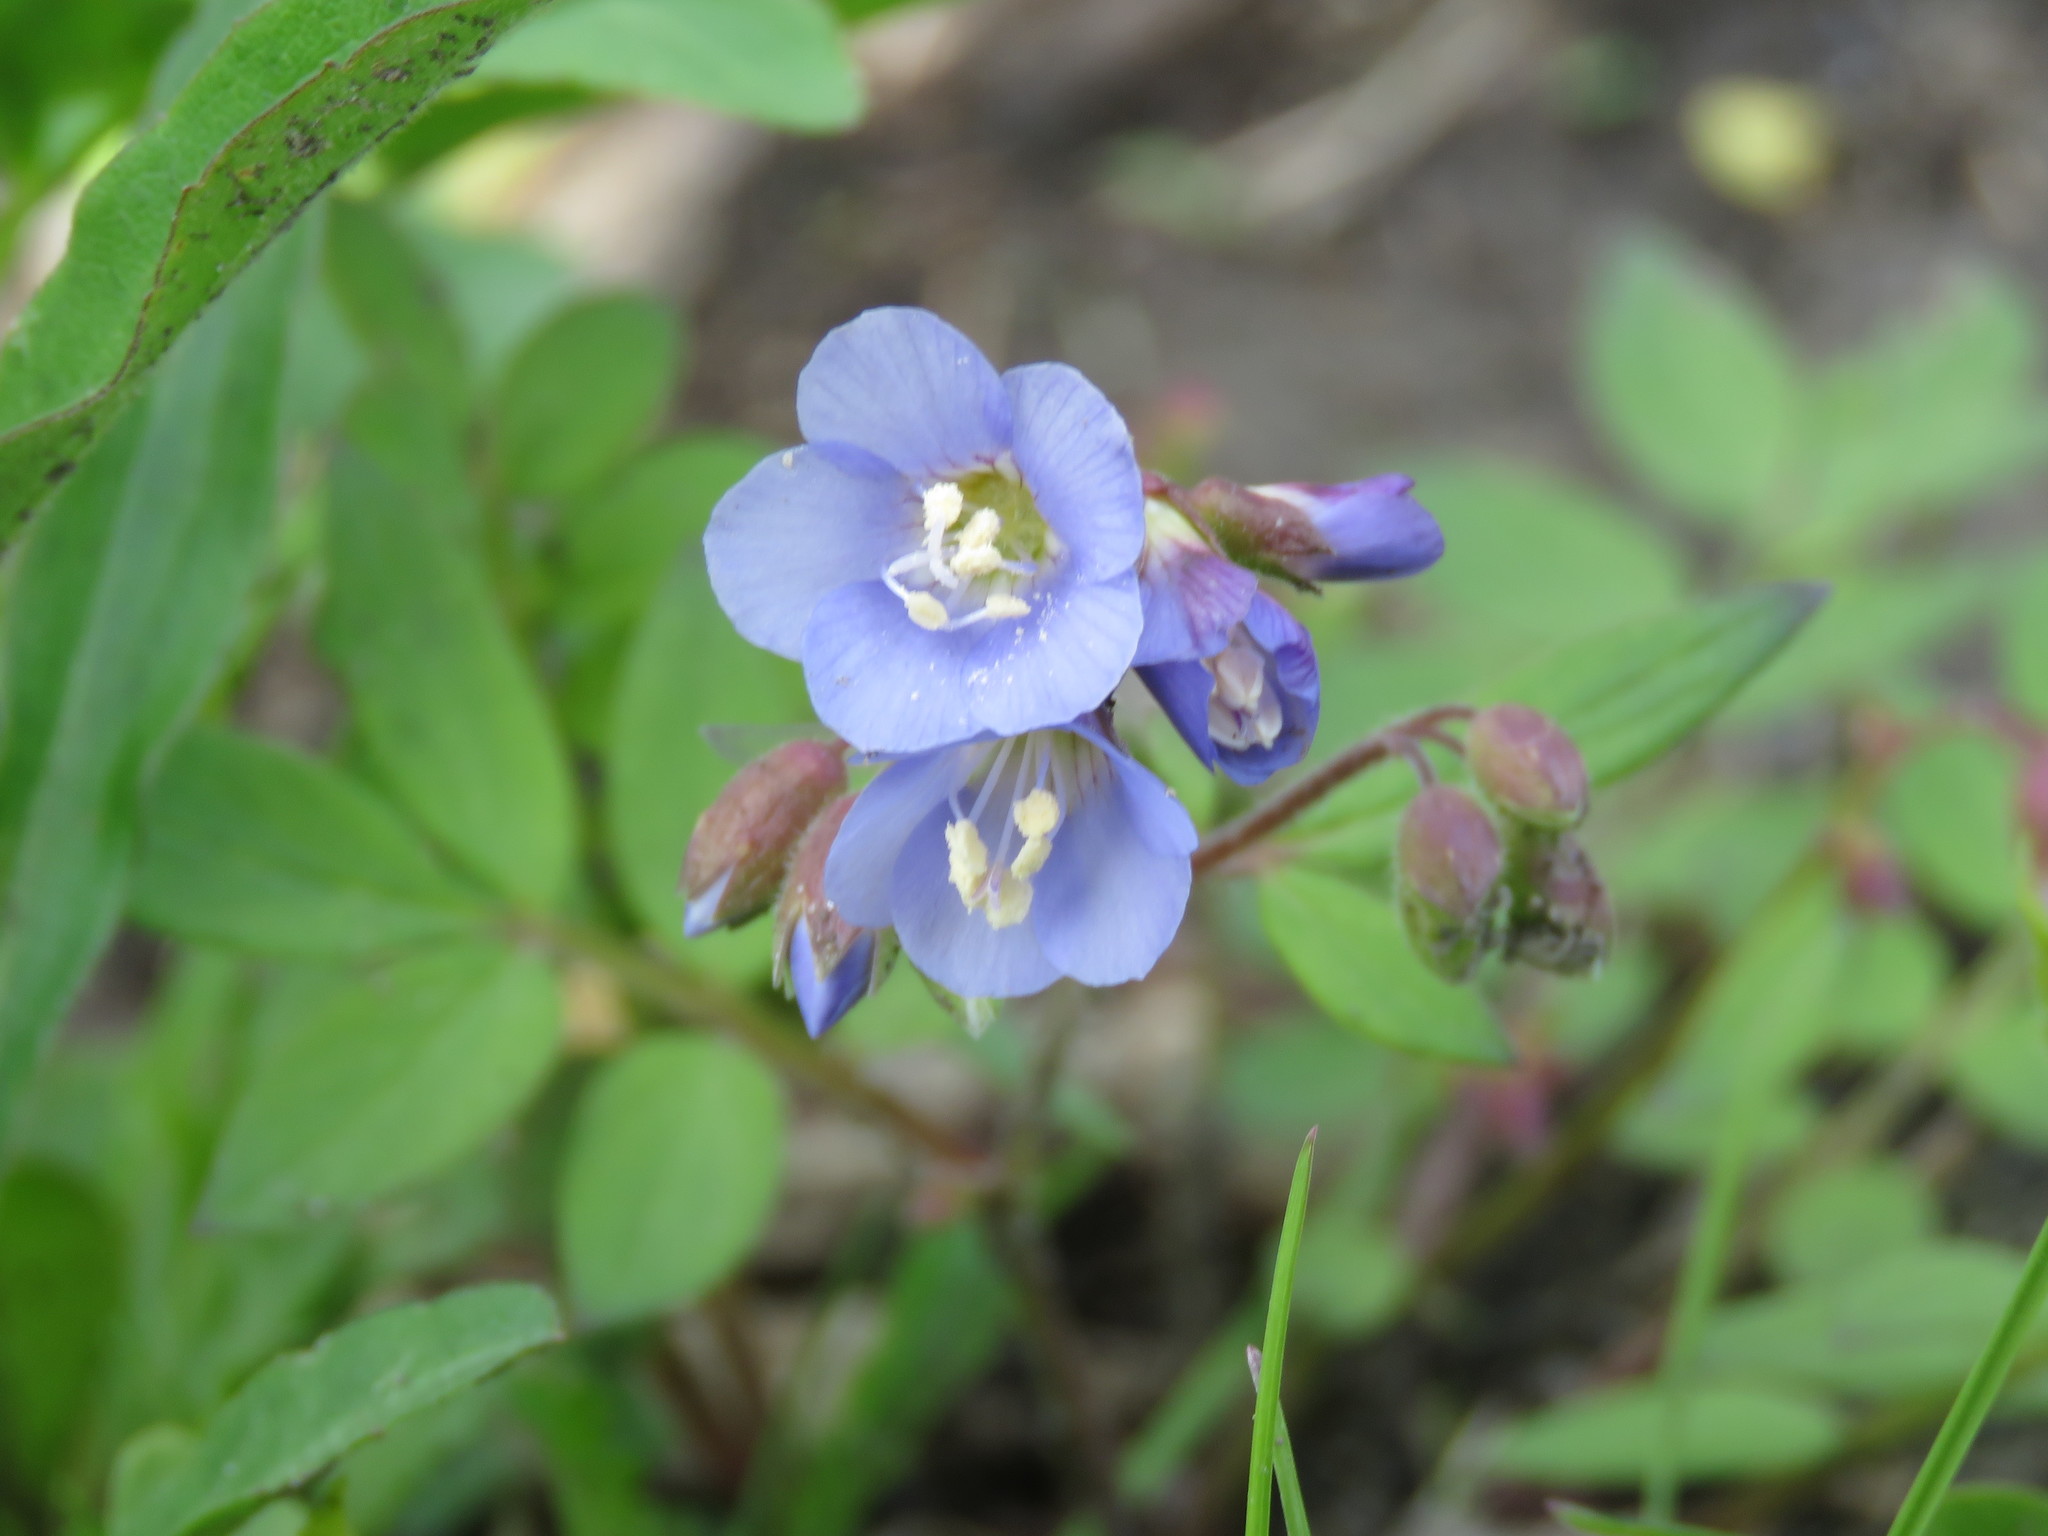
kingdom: Plantae
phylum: Tracheophyta
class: Magnoliopsida
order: Ericales
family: Polemoniaceae
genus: Polemonium
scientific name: Polemonium reptans
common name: Creeping jacob's-ladder
